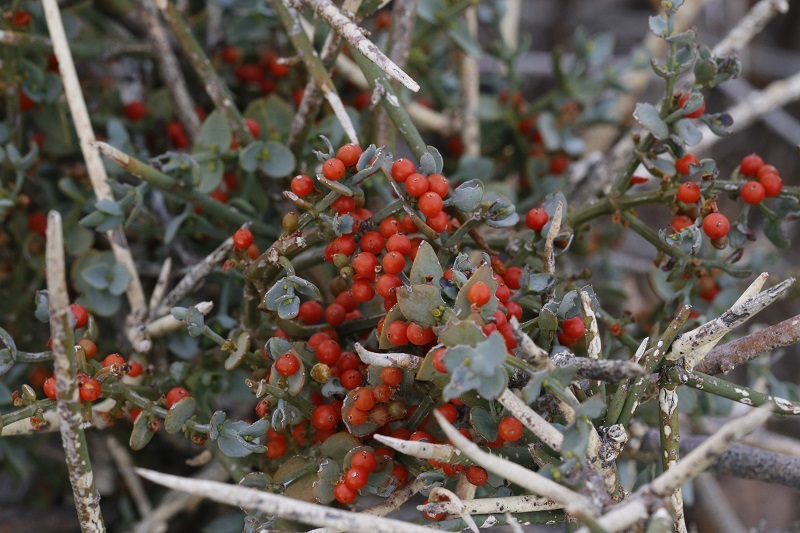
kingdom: Plantae
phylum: Tracheophyta
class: Magnoliopsida
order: Santalales
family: Viscaceae
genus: Viscum
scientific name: Viscum rotundifolium
